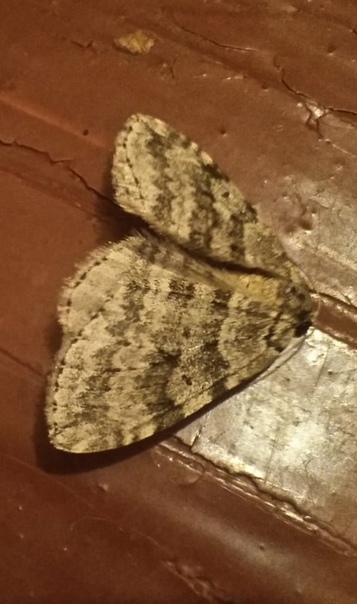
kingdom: Animalia
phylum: Arthropoda
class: Insecta
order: Lepidoptera
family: Geometridae
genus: Epirrita
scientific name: Epirrita autumnata
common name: Autumnal moth
